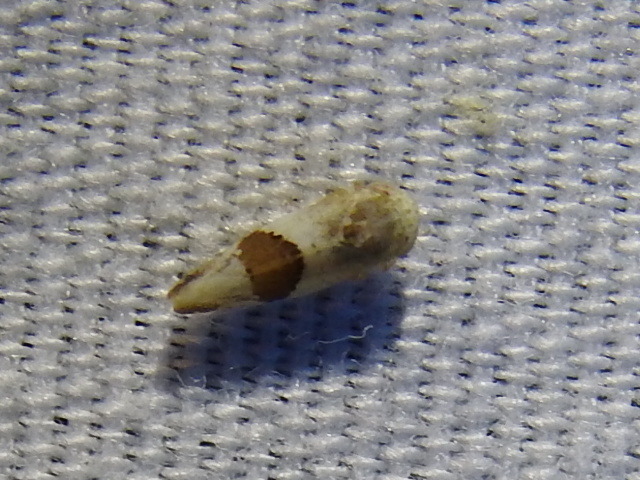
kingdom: Animalia
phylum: Arthropoda
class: Insecta
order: Hemiptera
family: Cicadellidae
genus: Norvellina
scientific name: Norvellina seminuda
